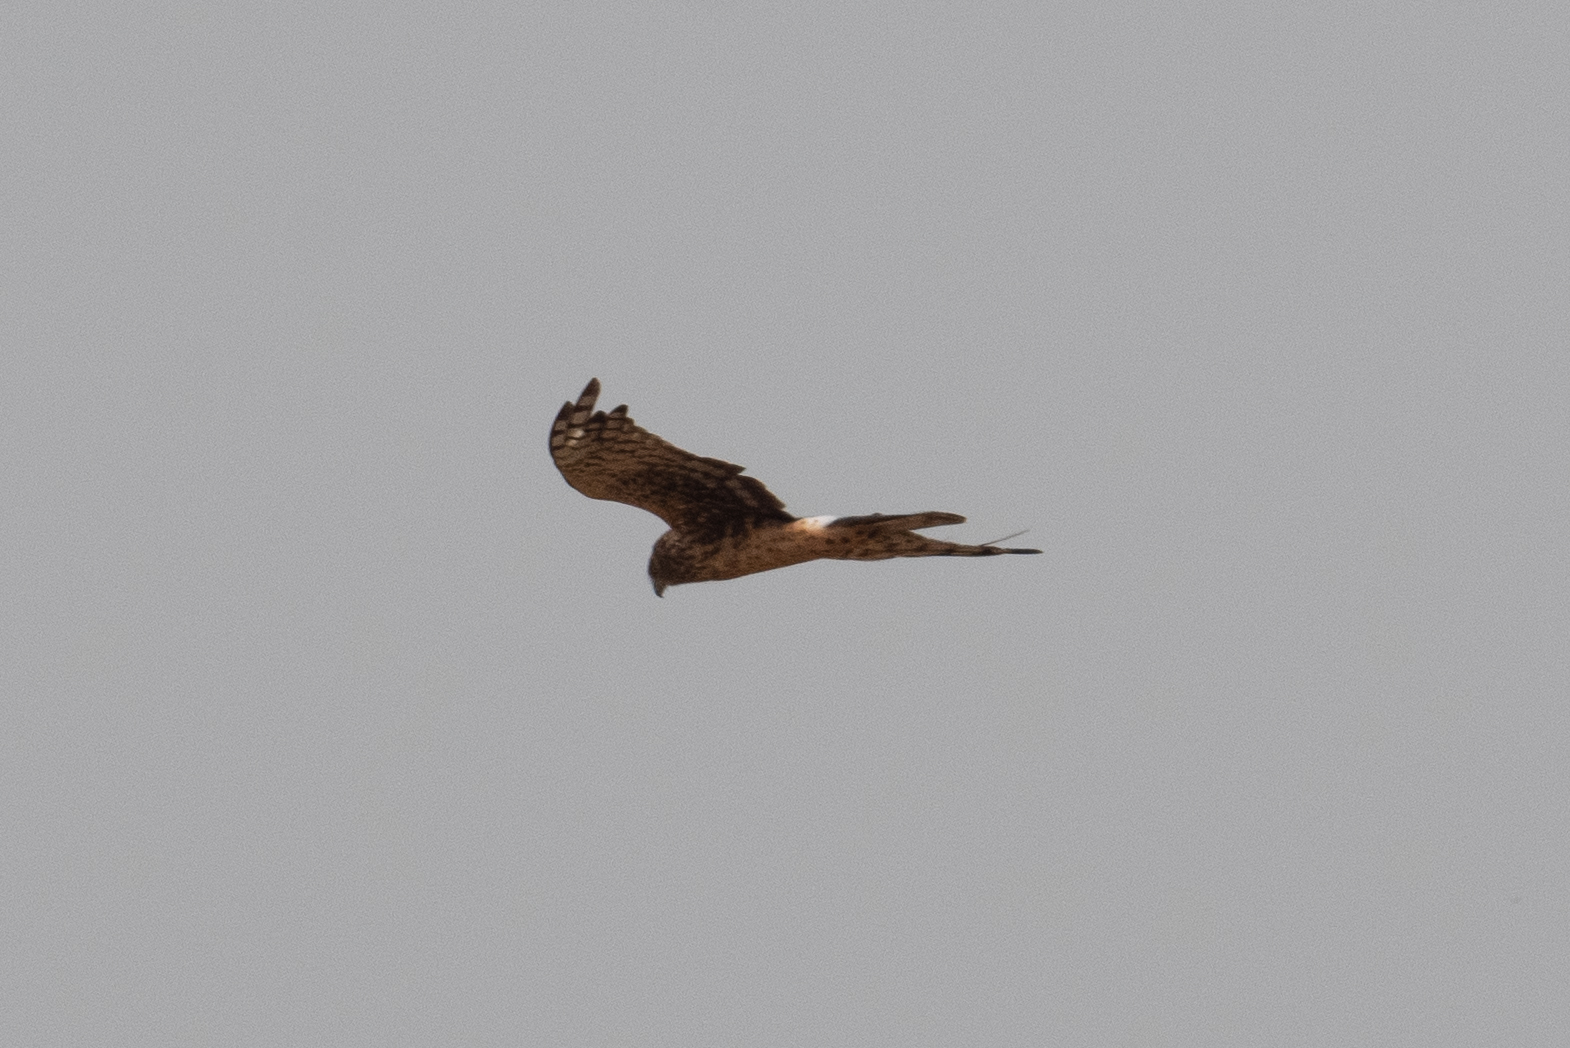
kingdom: Animalia
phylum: Chordata
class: Aves
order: Accipitriformes
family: Accipitridae
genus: Circus
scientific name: Circus cyaneus
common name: Hen harrier
